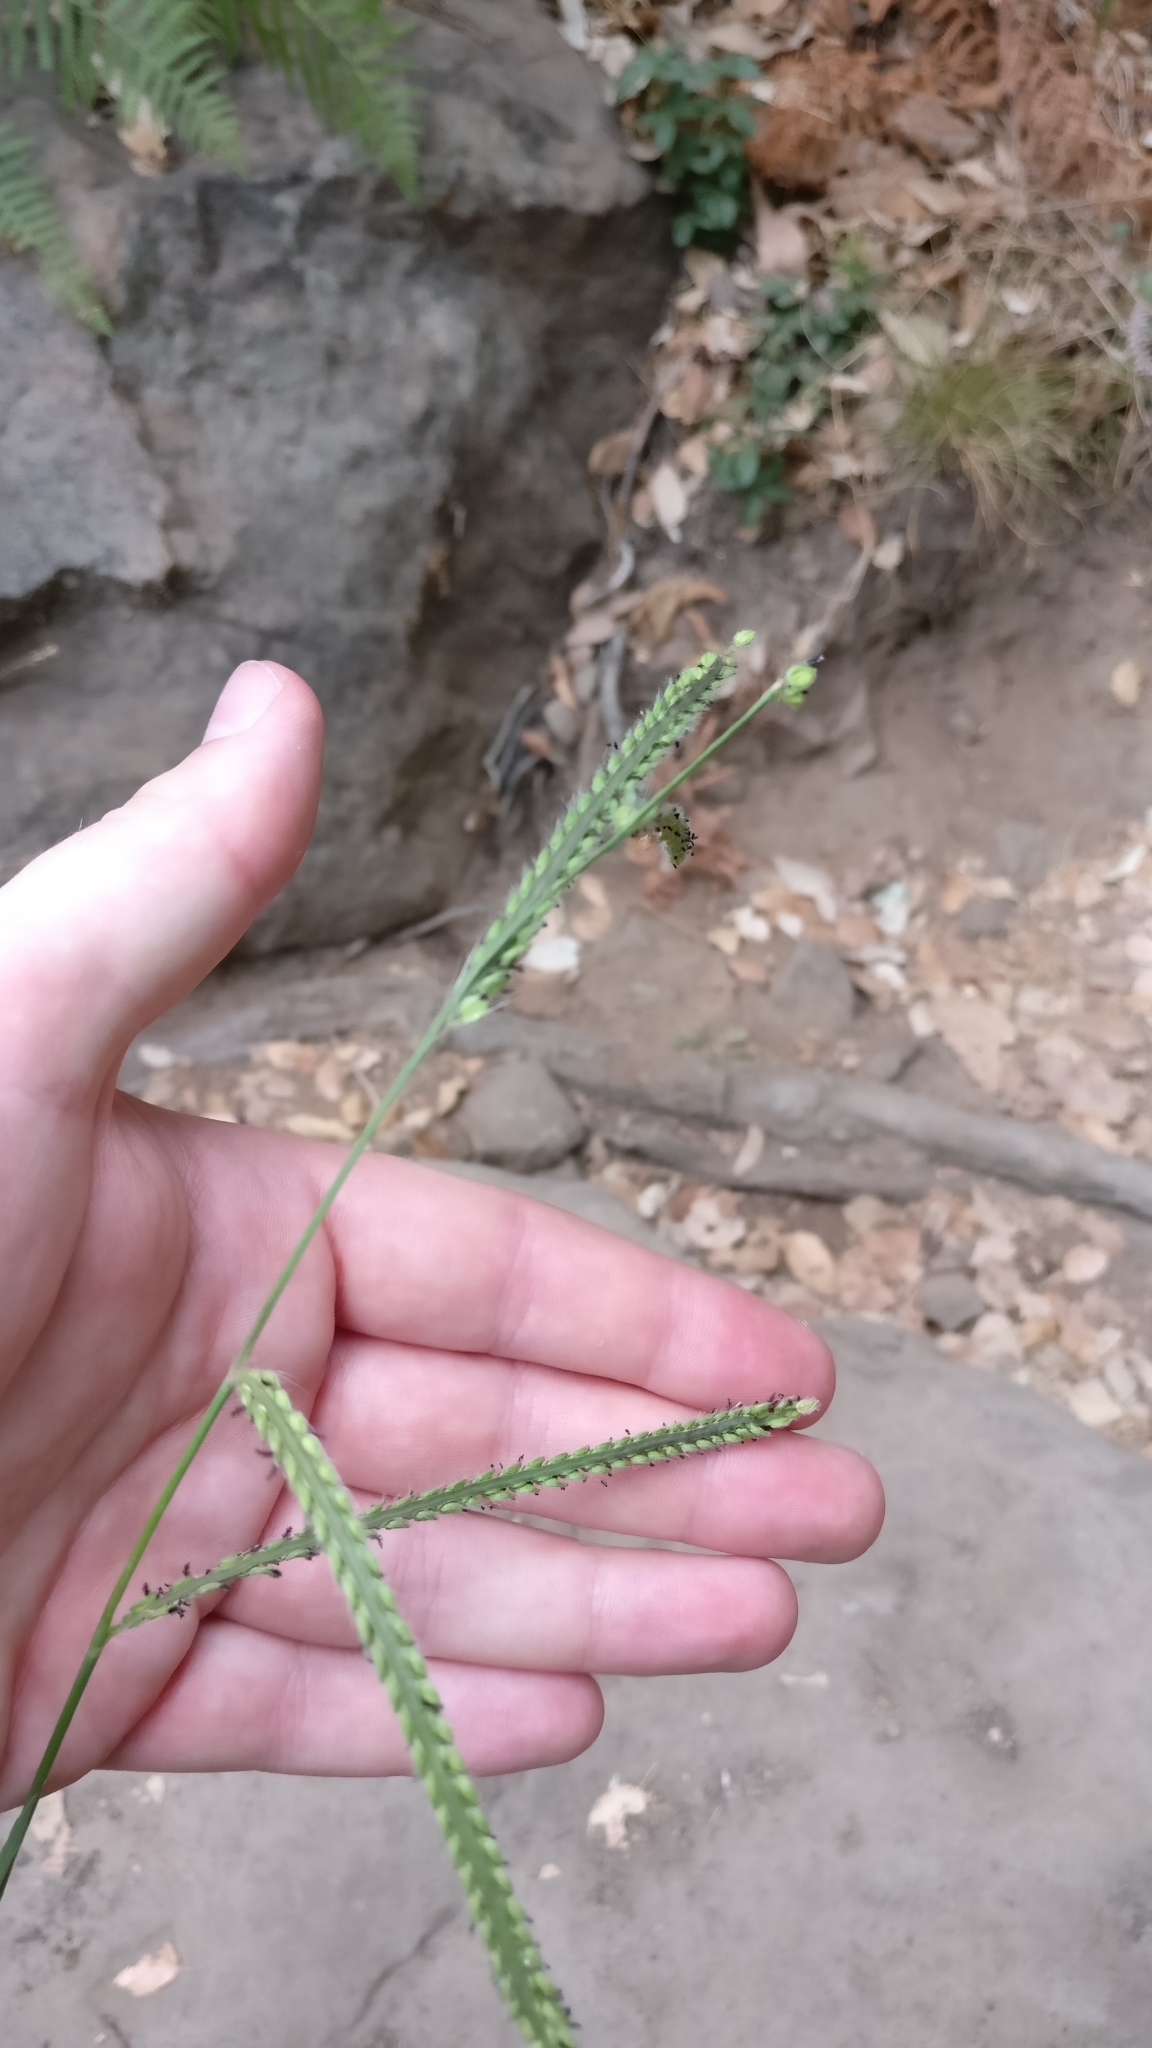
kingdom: Plantae
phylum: Tracheophyta
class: Liliopsida
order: Poales
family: Poaceae
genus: Paspalum
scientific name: Paspalum dilatatum
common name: Dallisgrass
